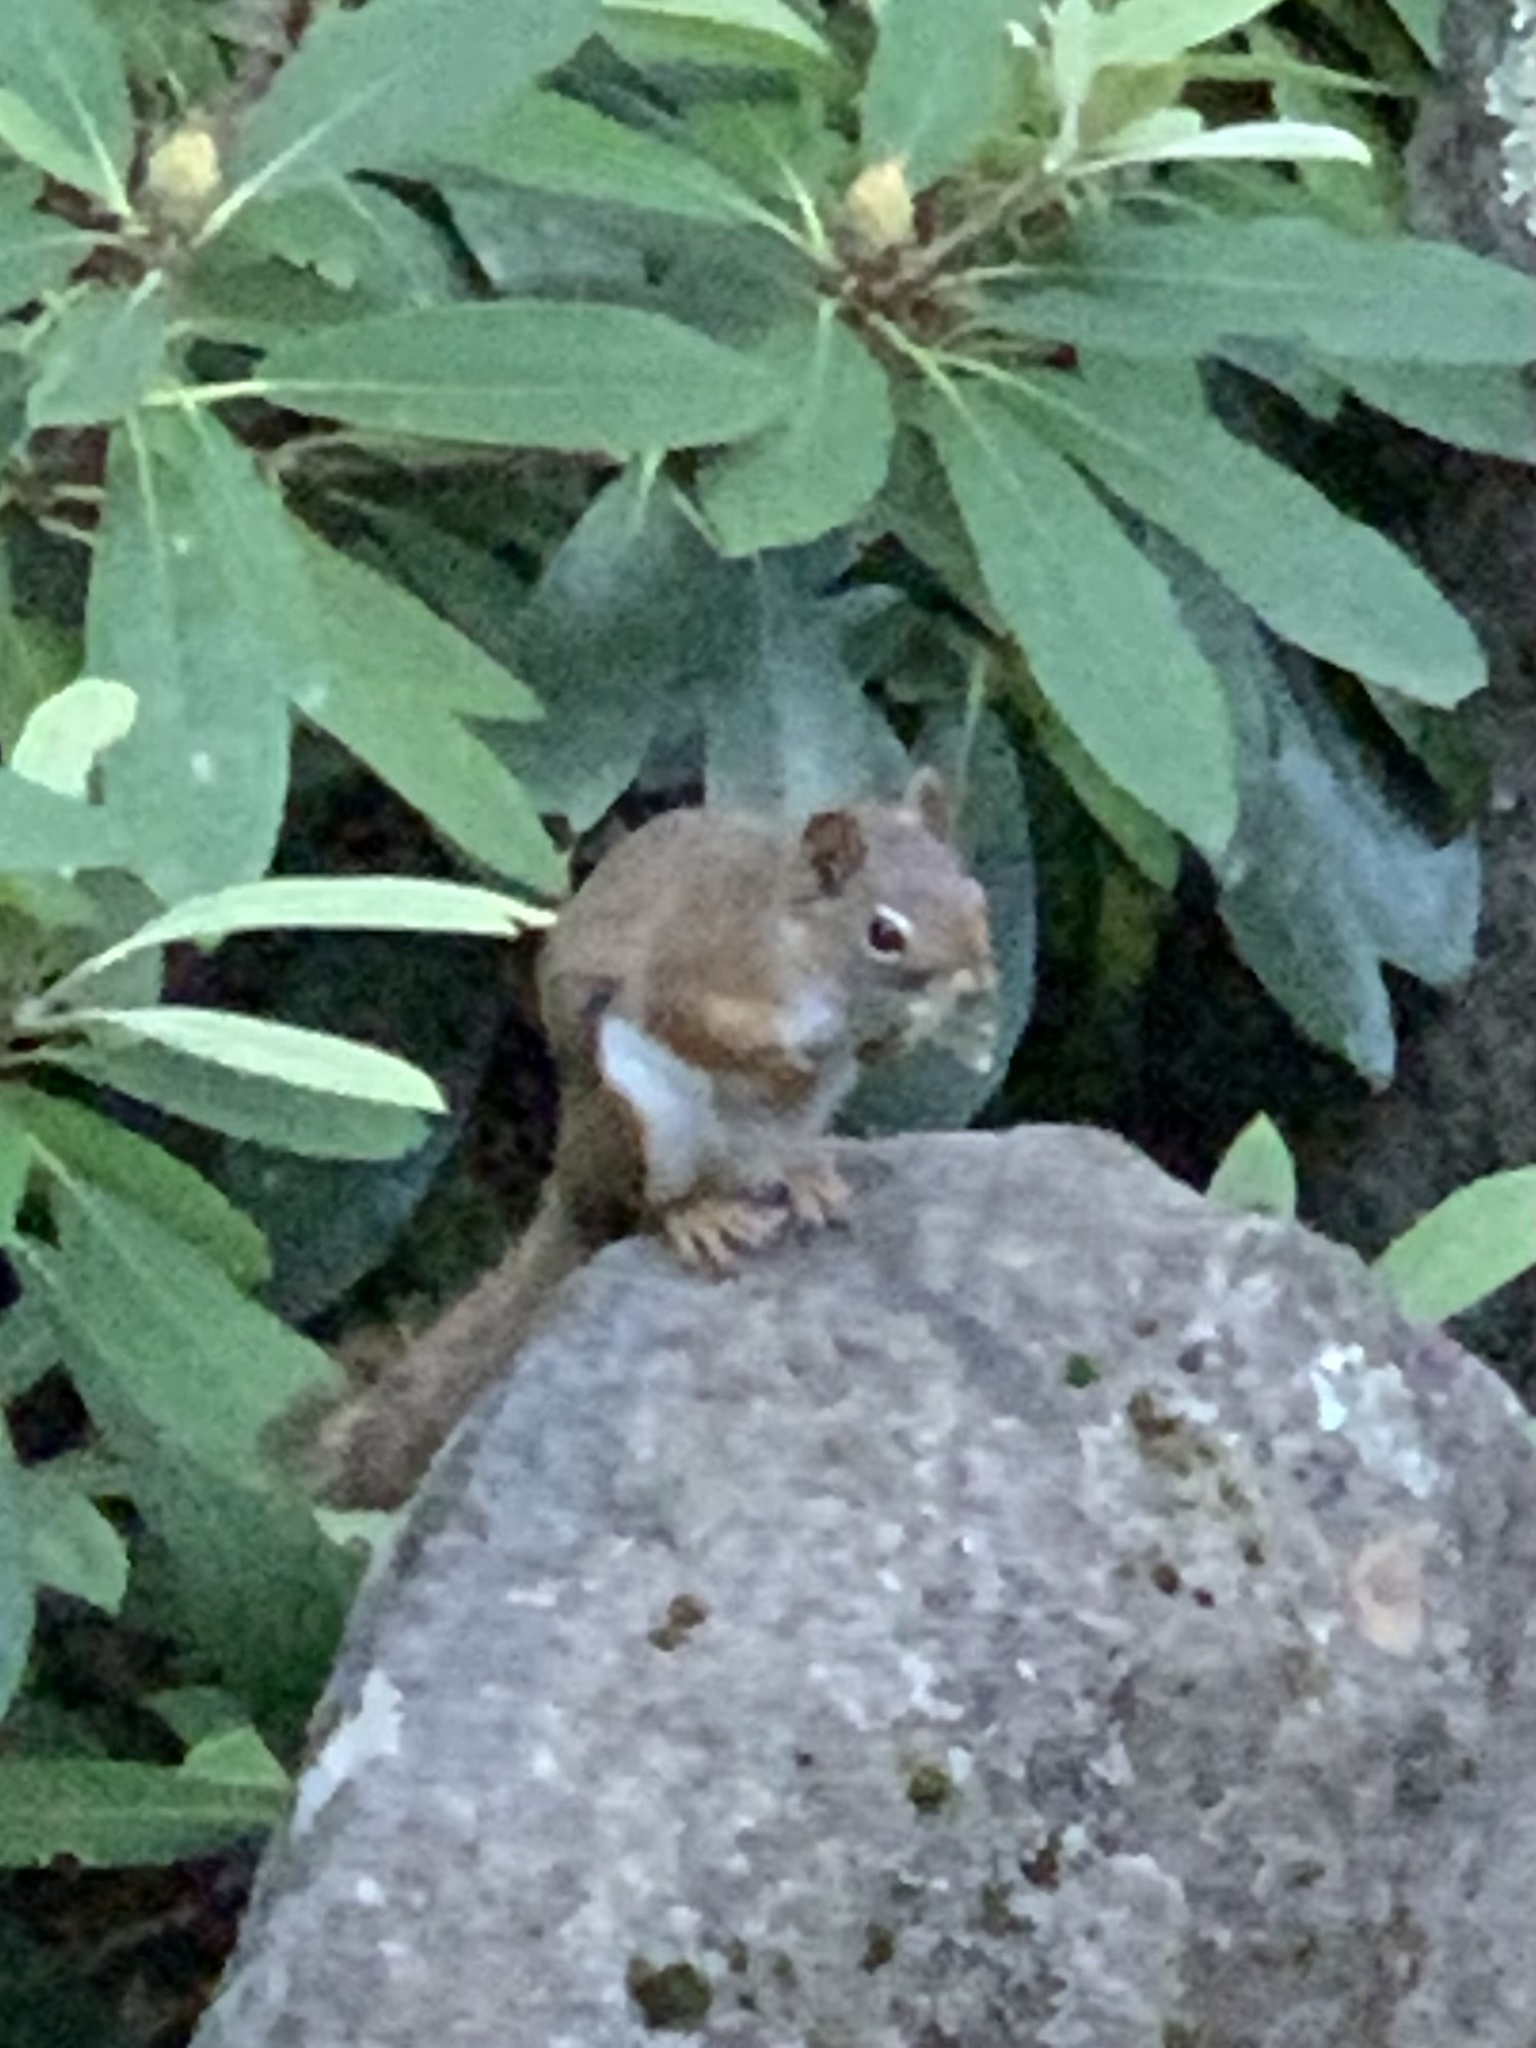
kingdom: Animalia
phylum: Chordata
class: Mammalia
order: Rodentia
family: Sciuridae
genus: Tamiasciurus
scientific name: Tamiasciurus hudsonicus
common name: Red squirrel
